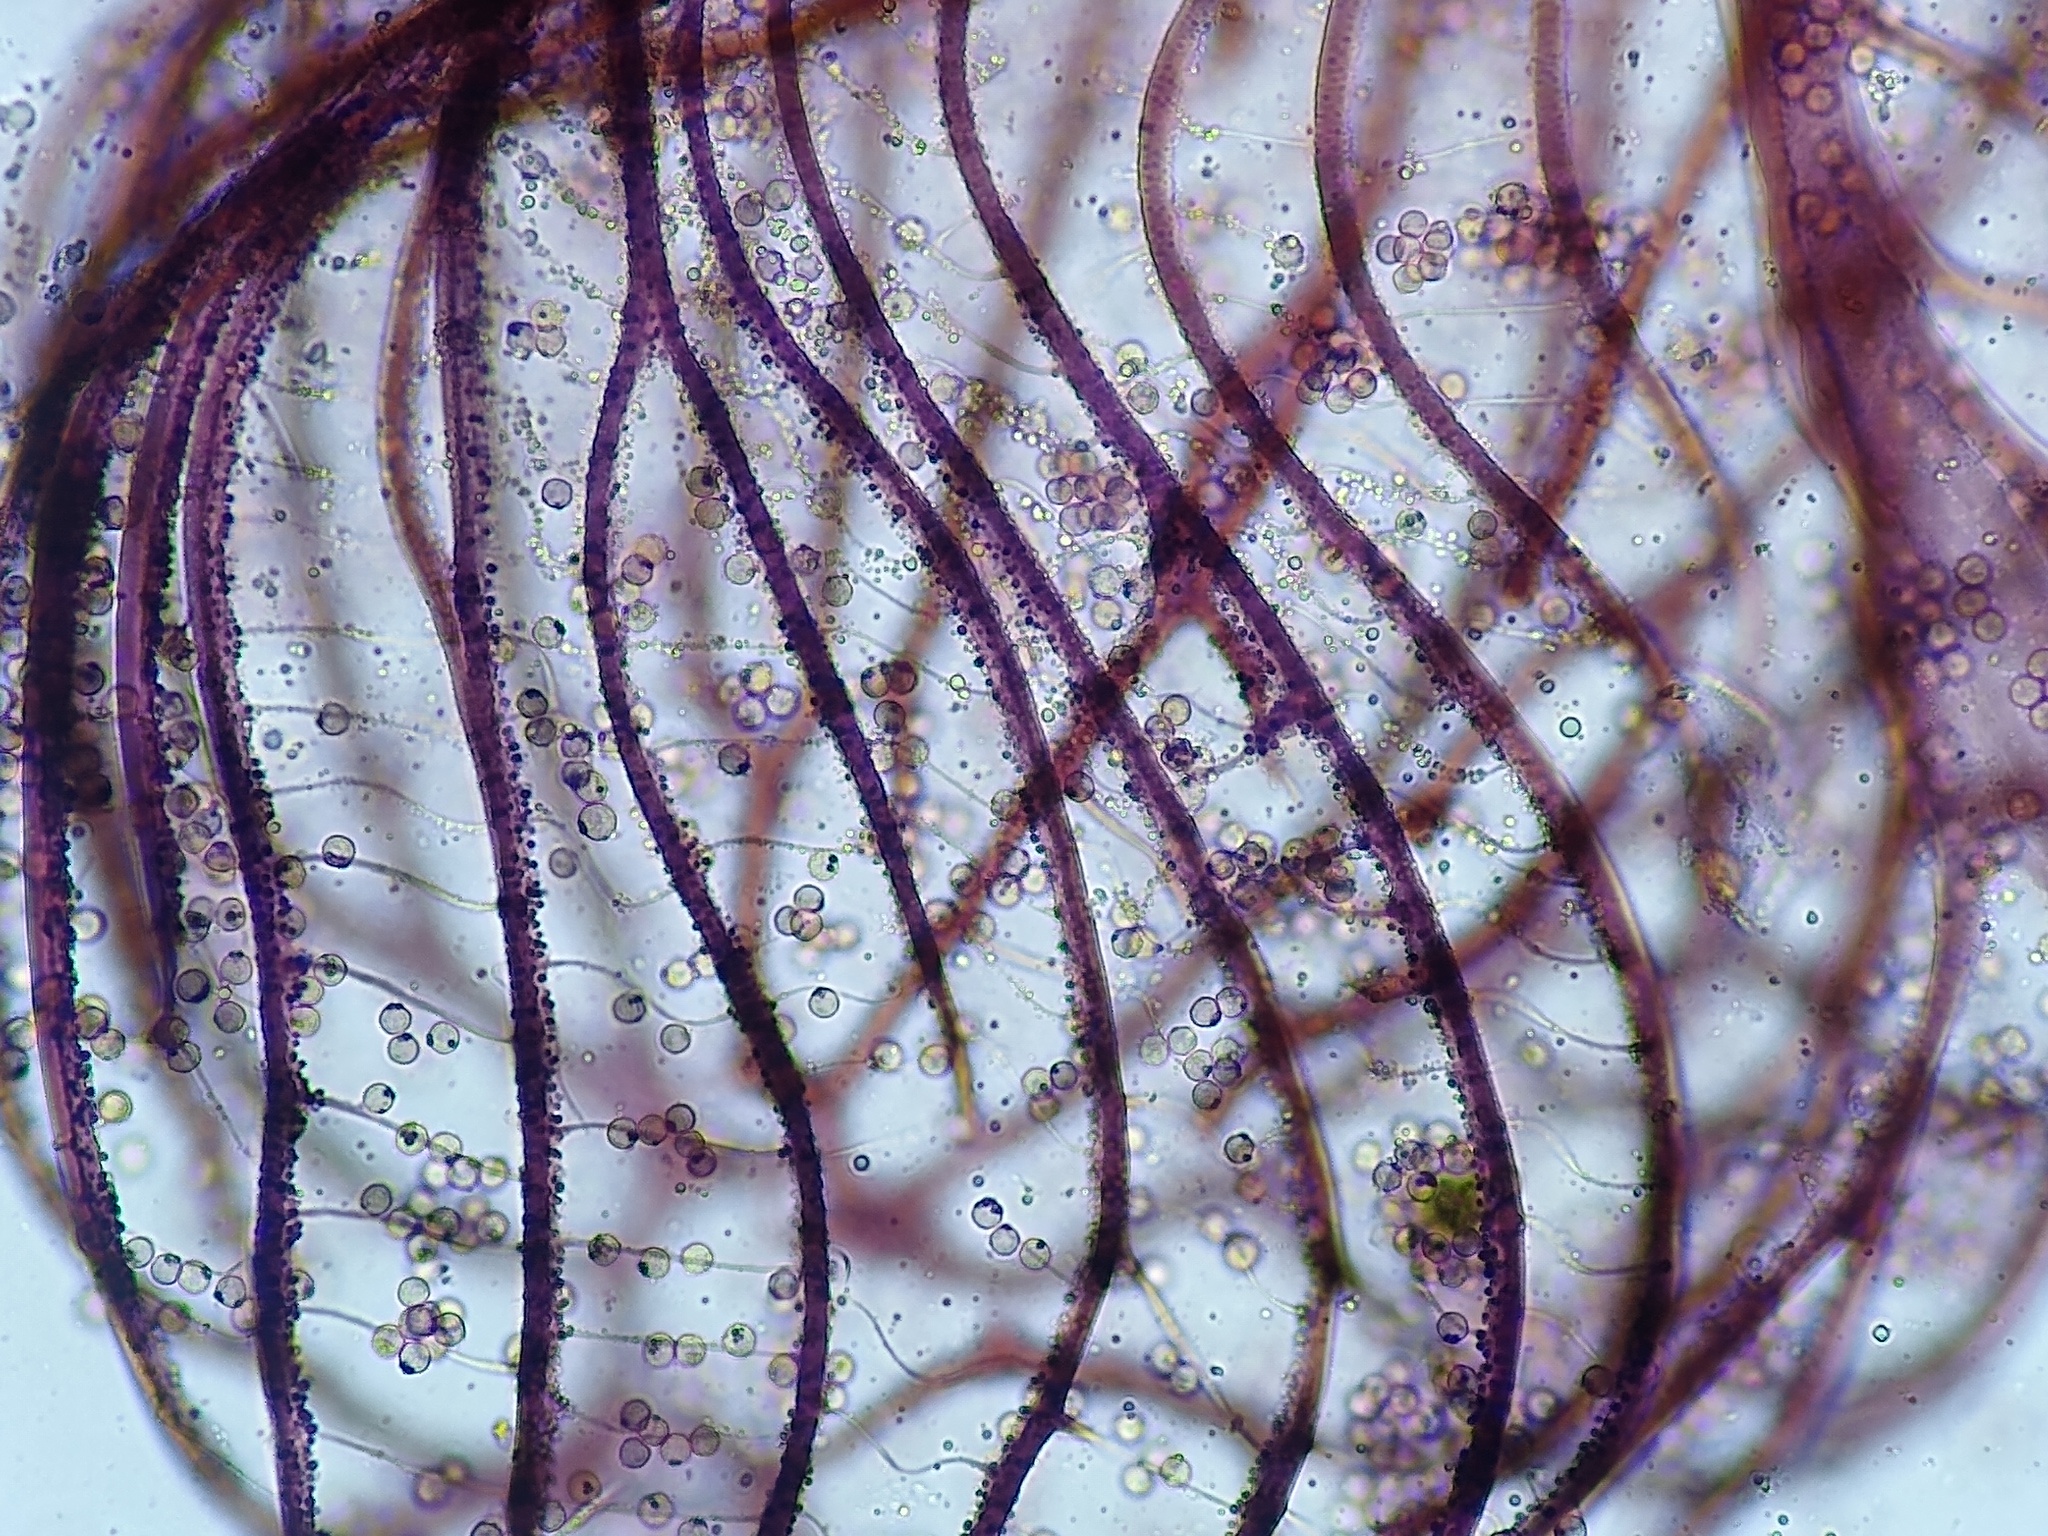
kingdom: Protozoa
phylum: Mycetozoa
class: Myxomycetes
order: Cribrariales
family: Cribrariaceae
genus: Cribraria
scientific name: Cribraria cancellata
